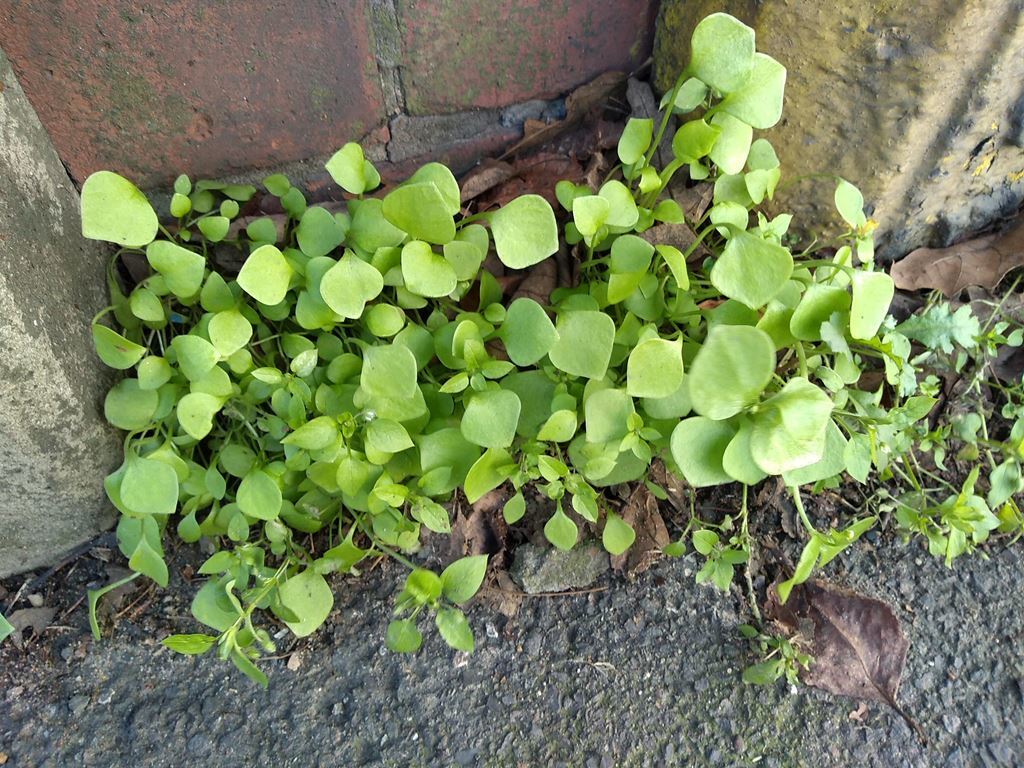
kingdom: Plantae
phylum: Tracheophyta
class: Magnoliopsida
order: Caryophyllales
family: Montiaceae
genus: Claytonia
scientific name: Claytonia perfoliata
